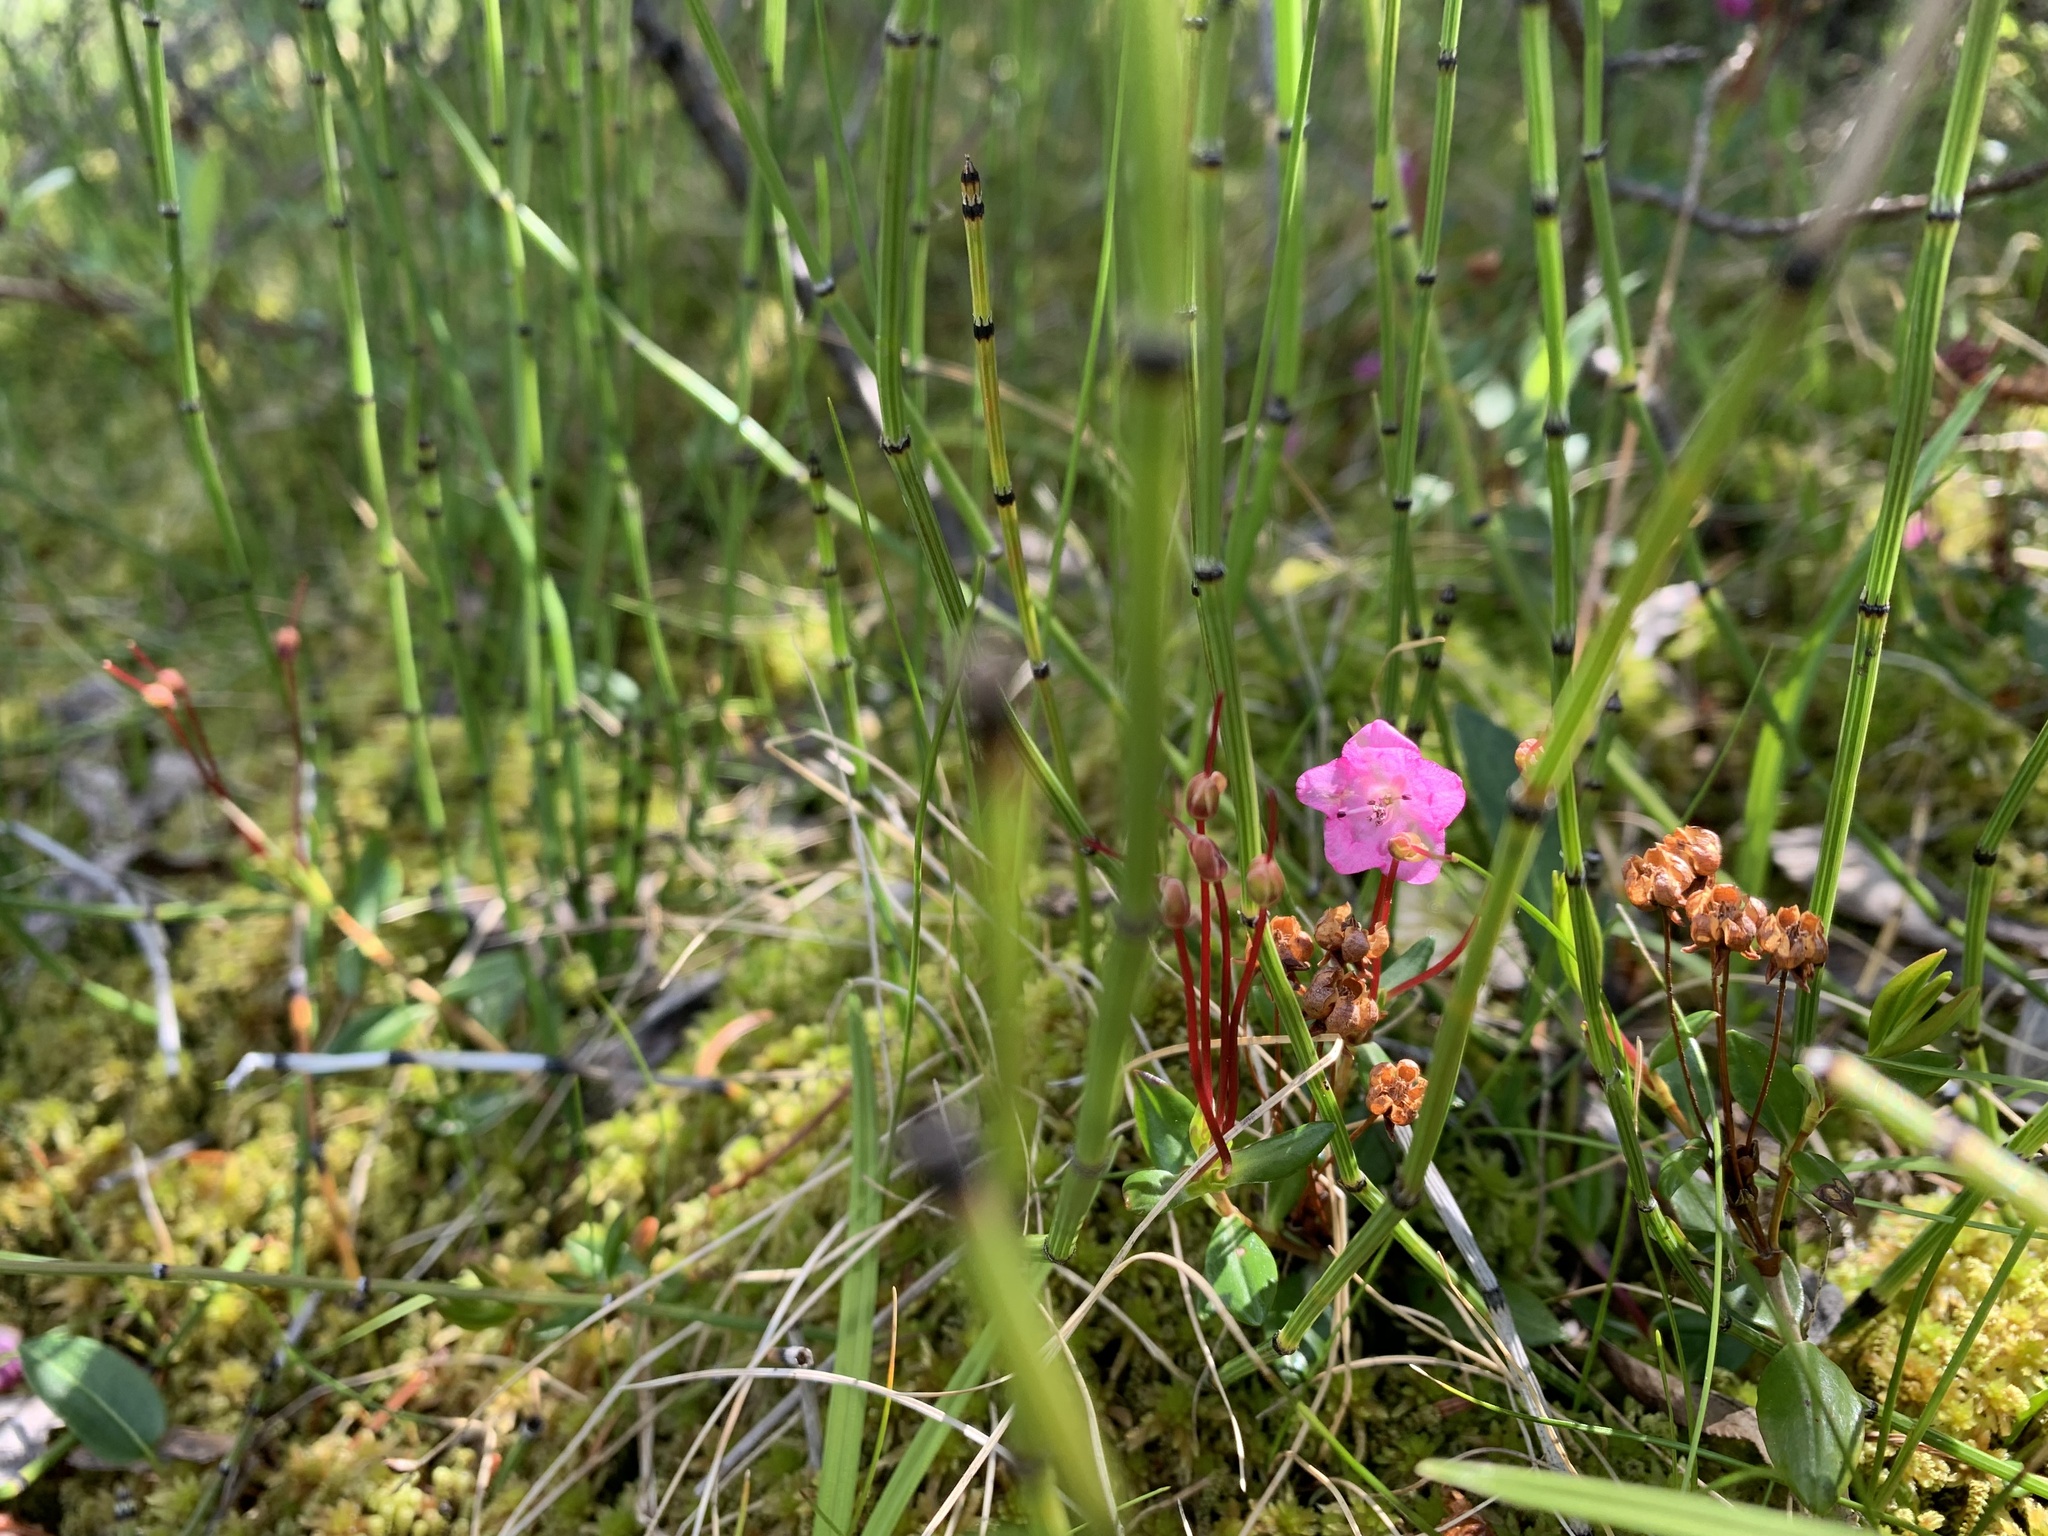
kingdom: Plantae
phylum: Tracheophyta
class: Magnoliopsida
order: Ericales
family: Ericaceae
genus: Kalmia
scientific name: Kalmia microphylla
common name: Alpine bog laurel
